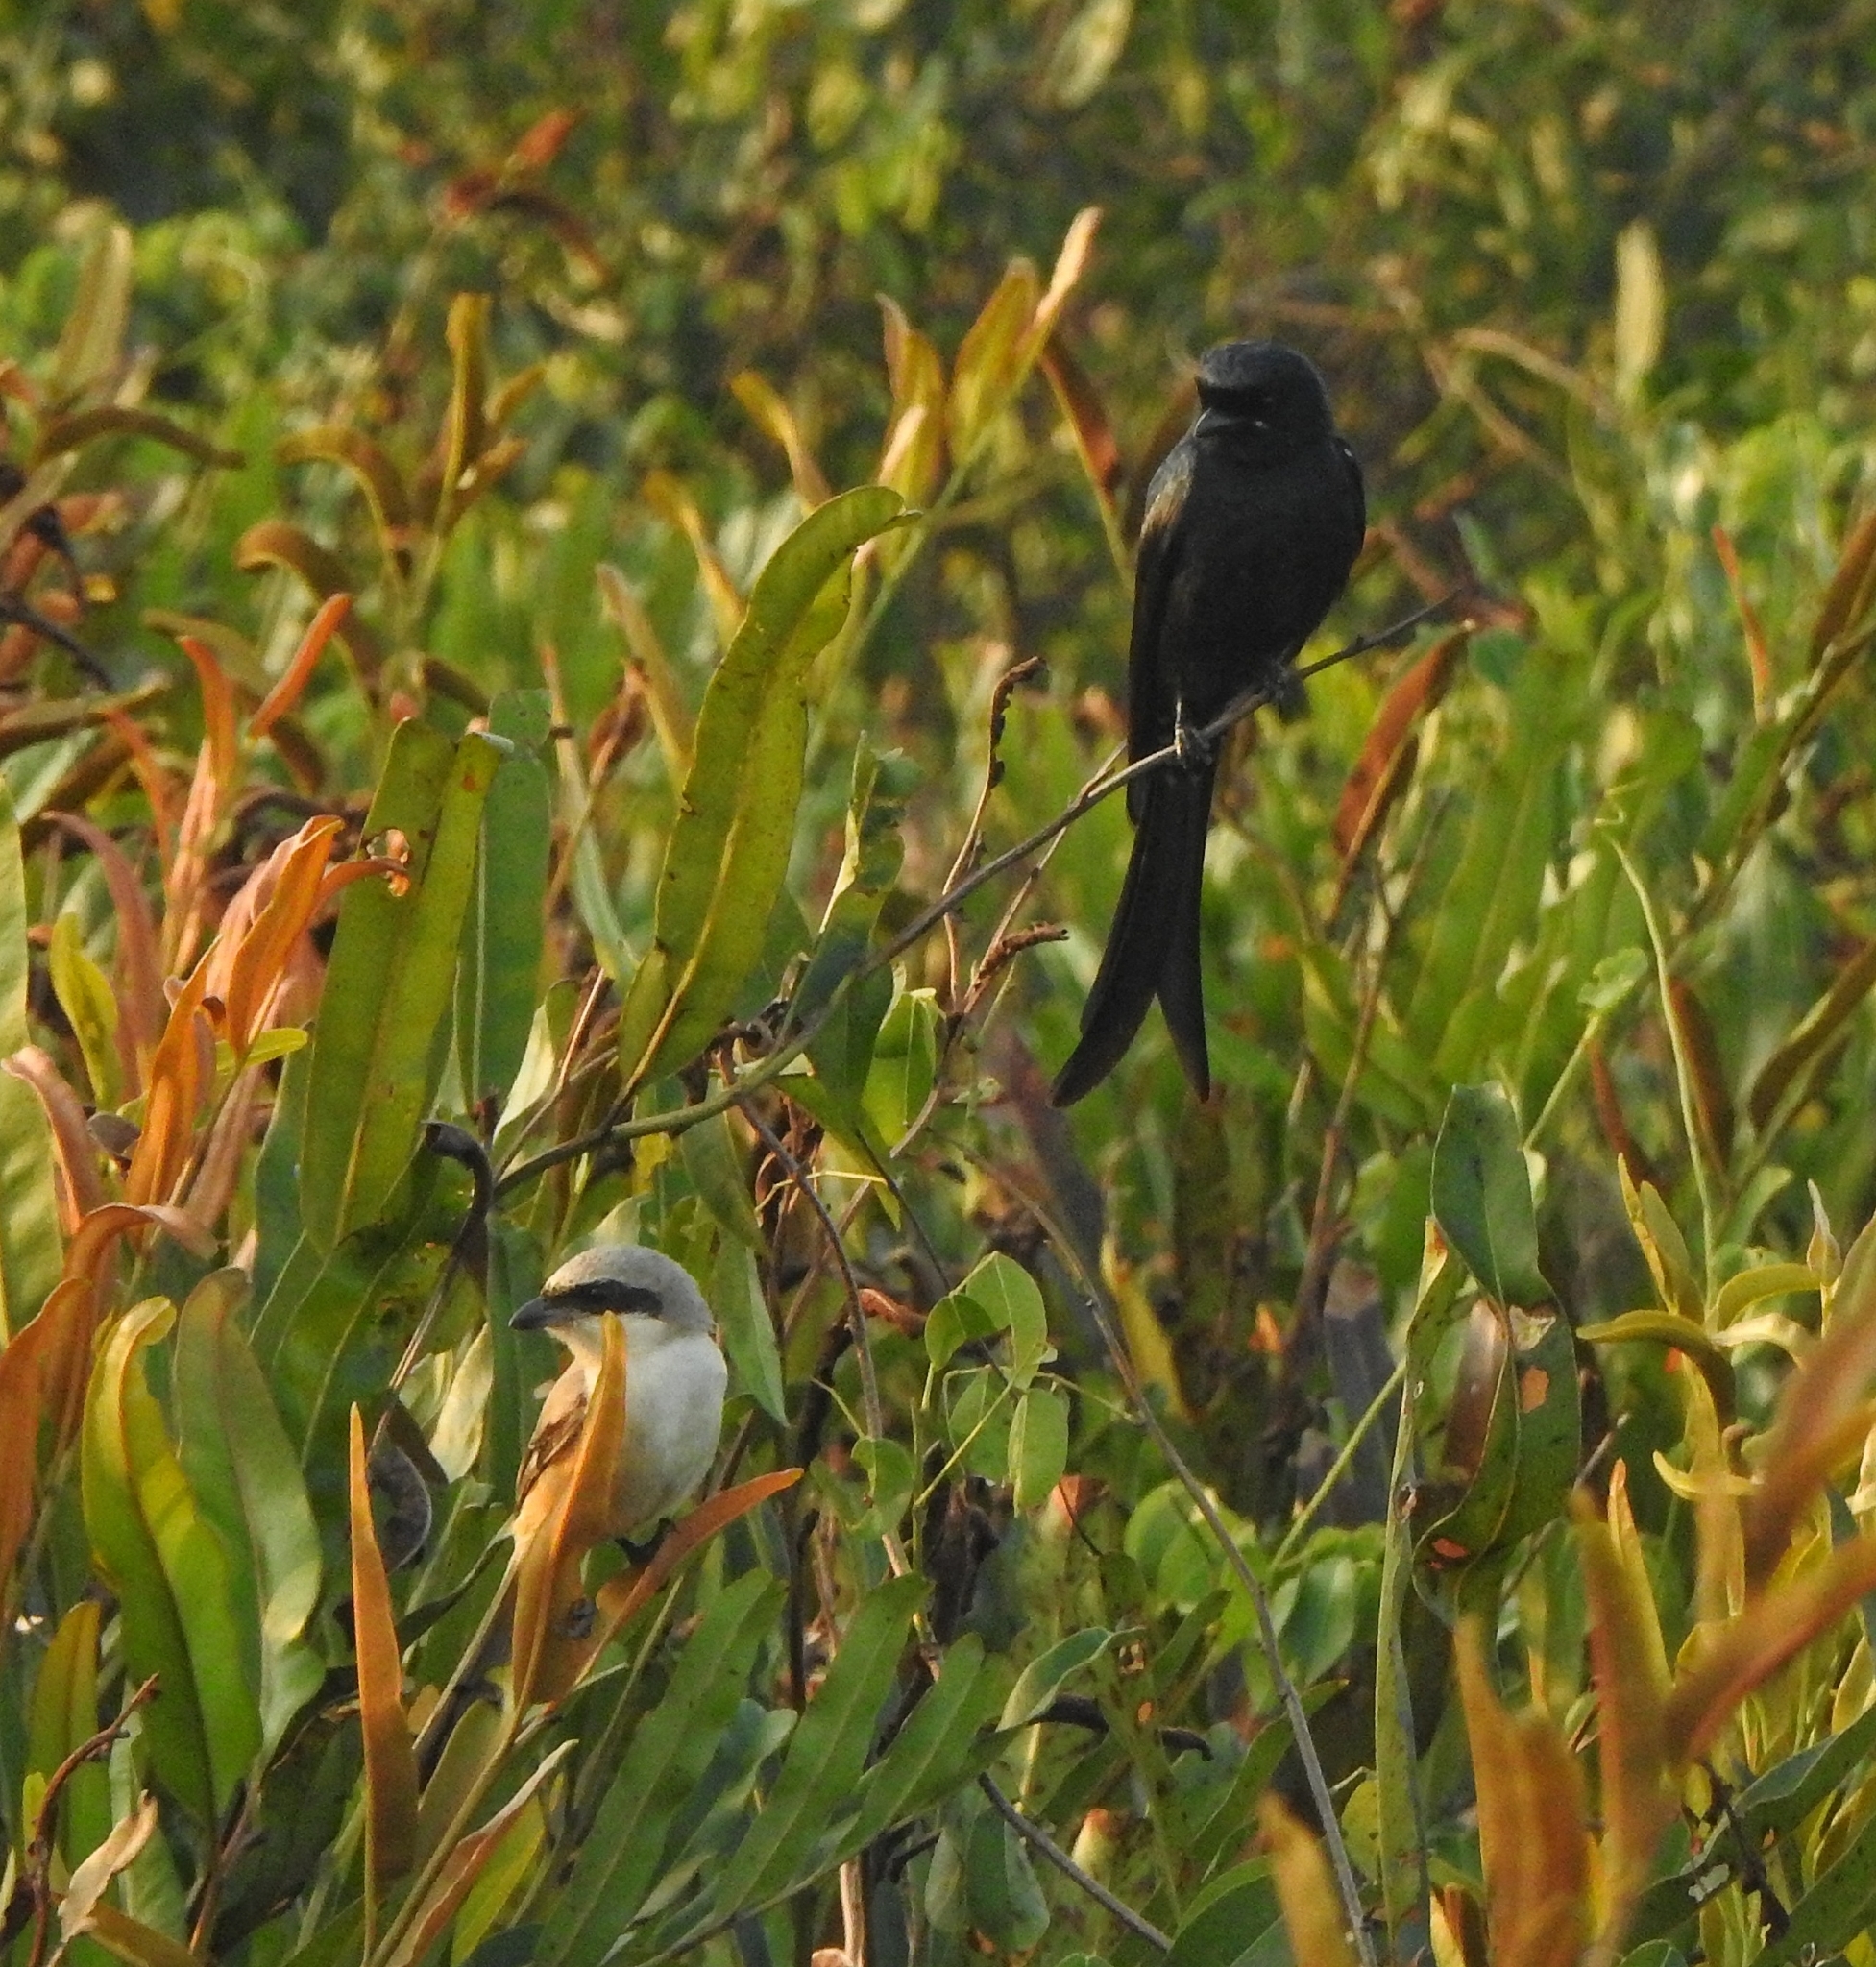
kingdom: Animalia
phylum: Chordata
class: Aves
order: Passeriformes
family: Laniidae
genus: Lanius
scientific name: Lanius schach
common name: Long-tailed shrike
